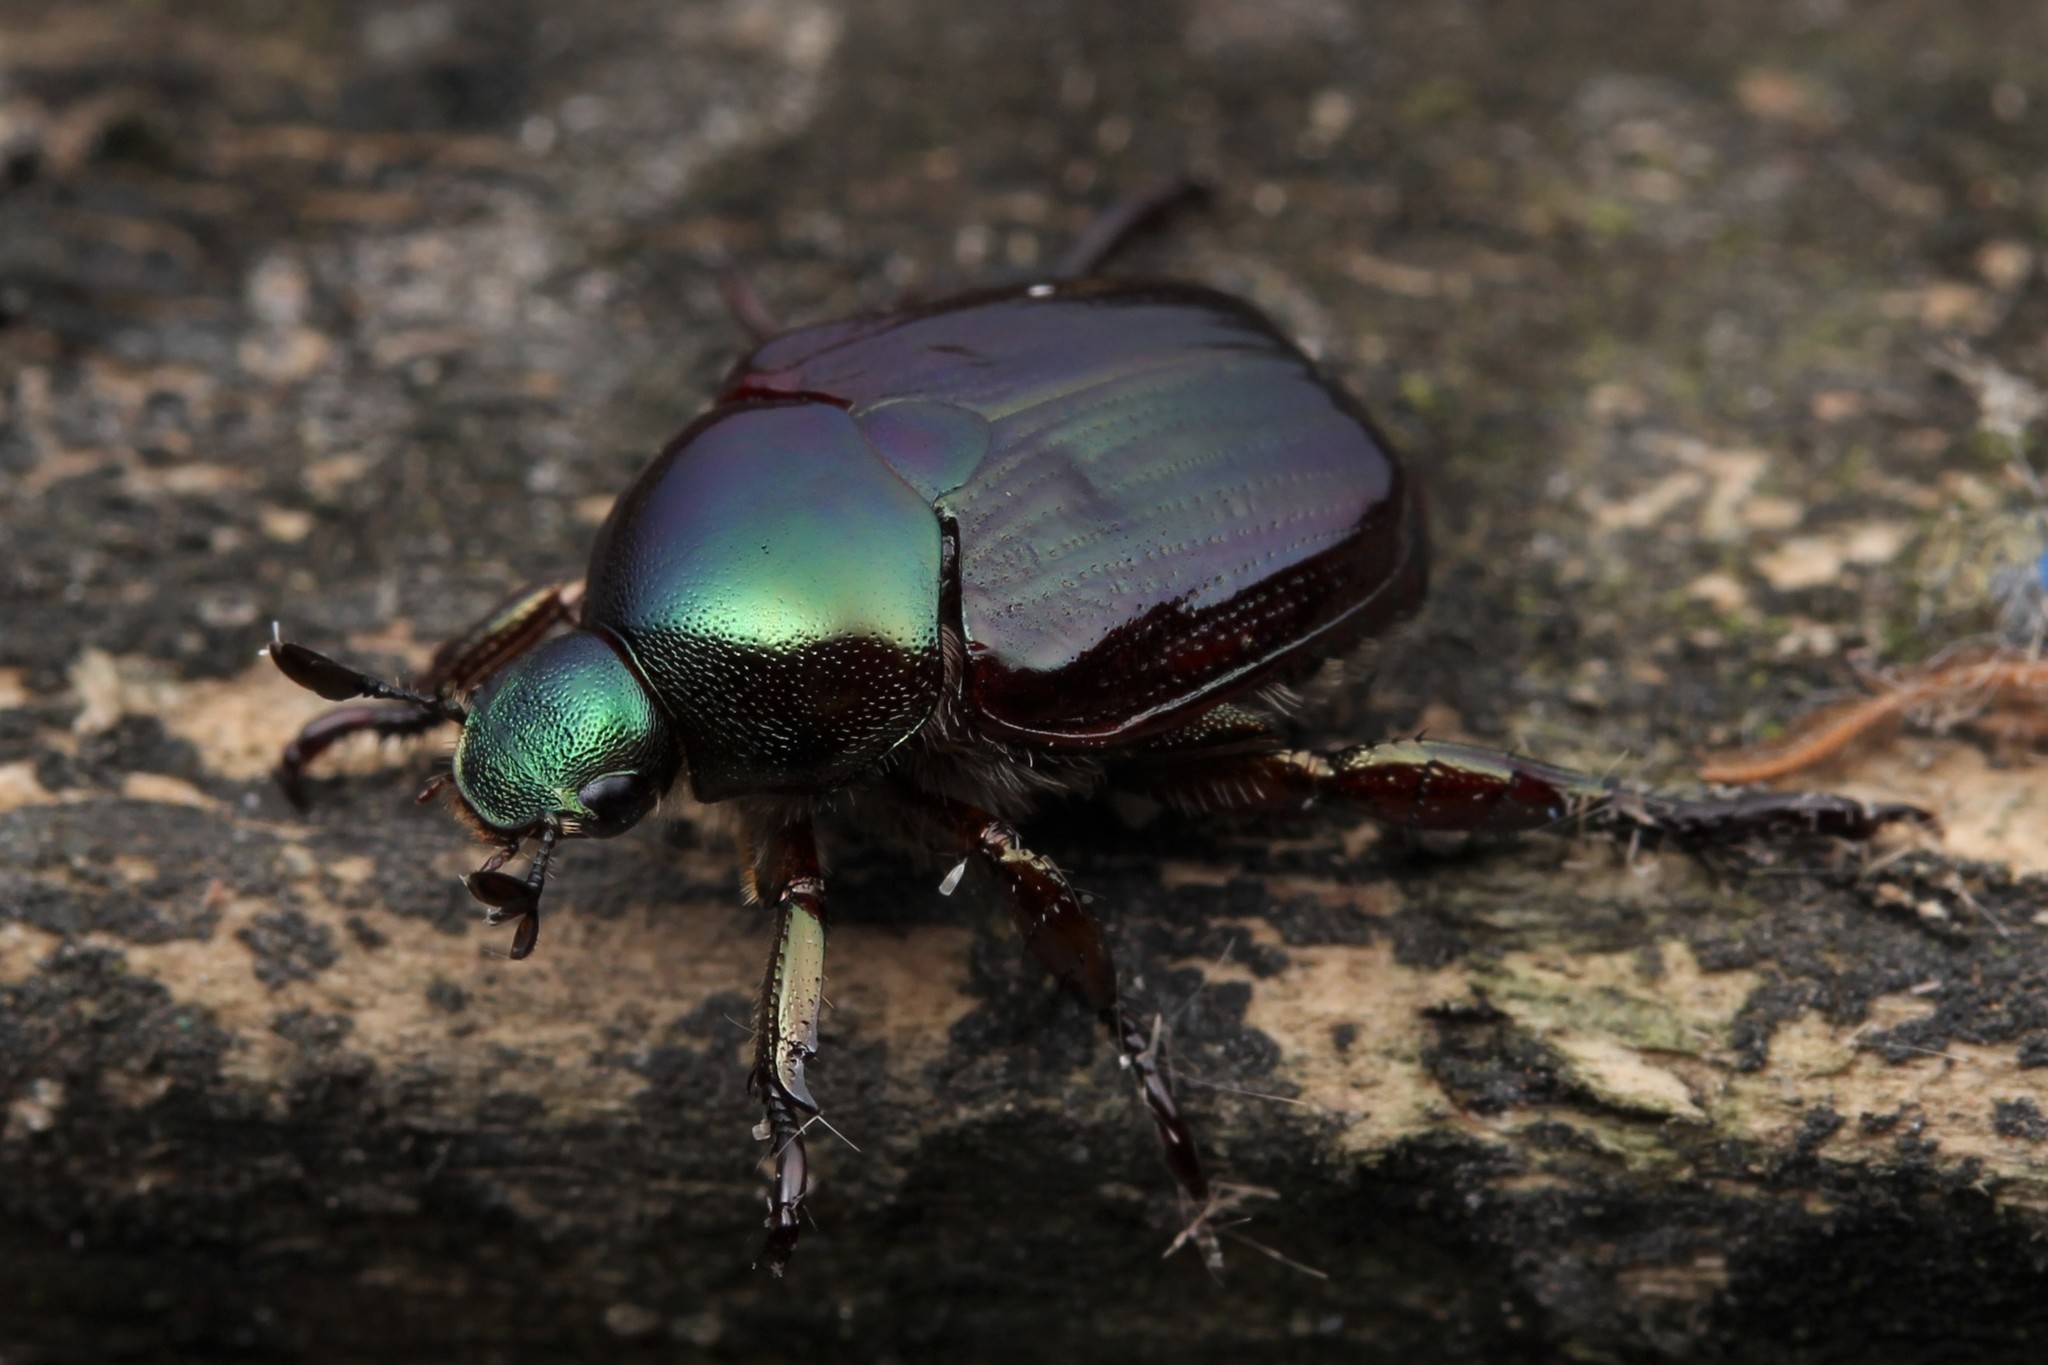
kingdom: Animalia
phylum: Arthropoda
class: Insecta
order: Coleoptera
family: Scarabaeidae
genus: Popillia
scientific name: Popillia mutans
